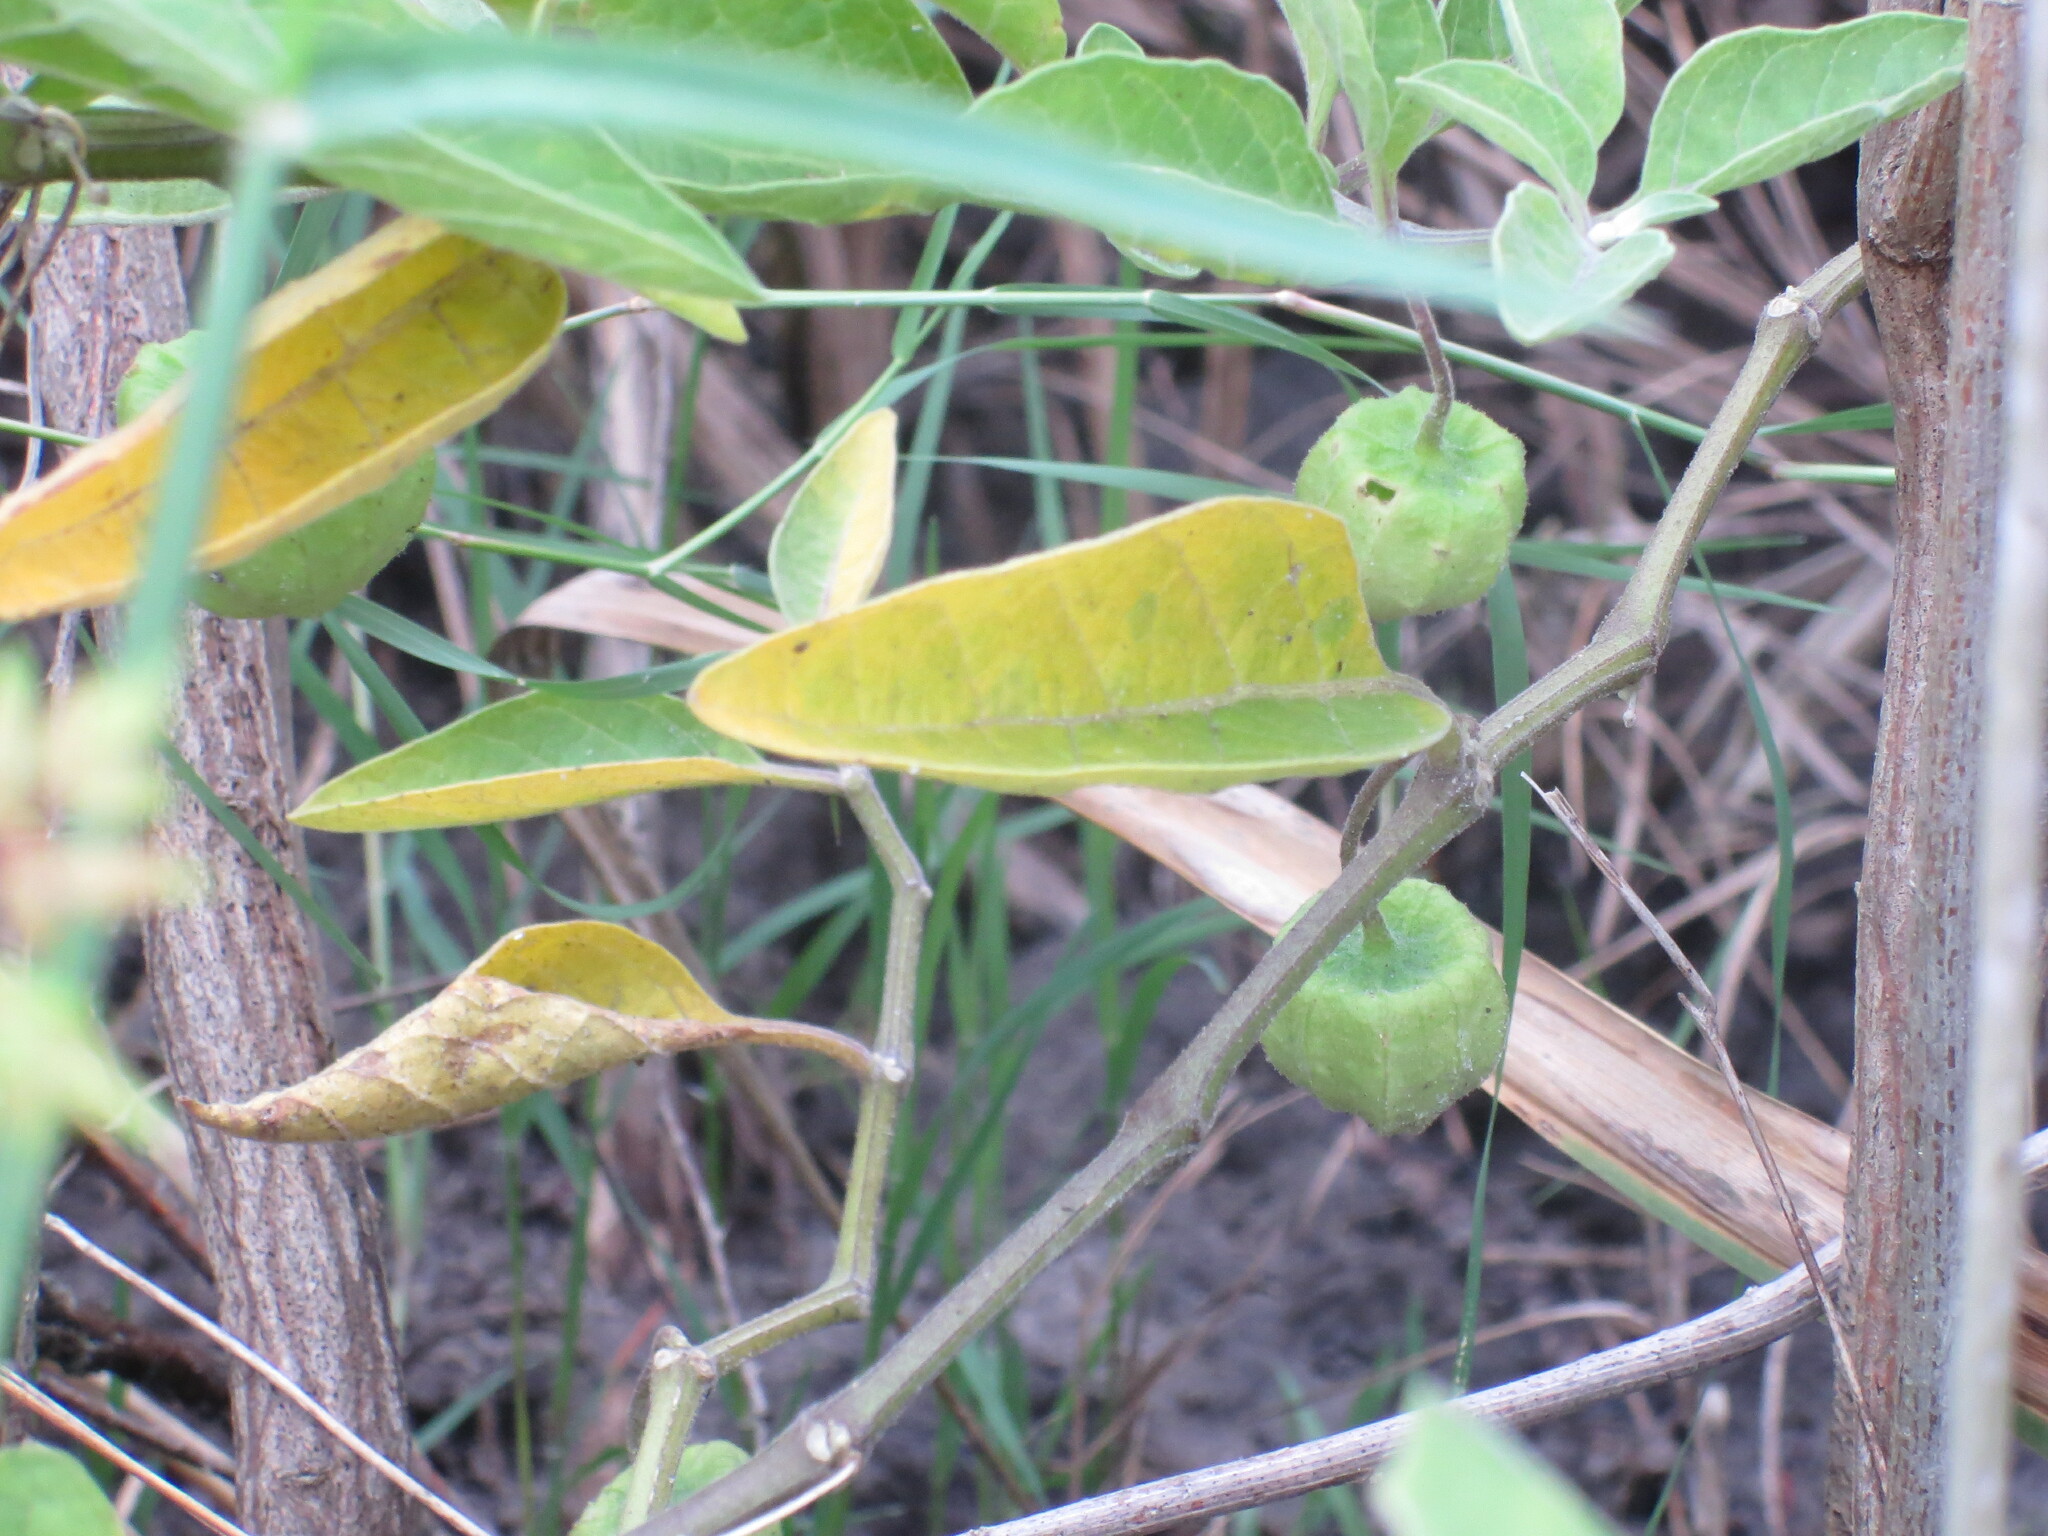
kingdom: Plantae
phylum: Tracheophyta
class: Magnoliopsida
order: Solanales
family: Solanaceae
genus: Physalis
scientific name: Physalis walteri
